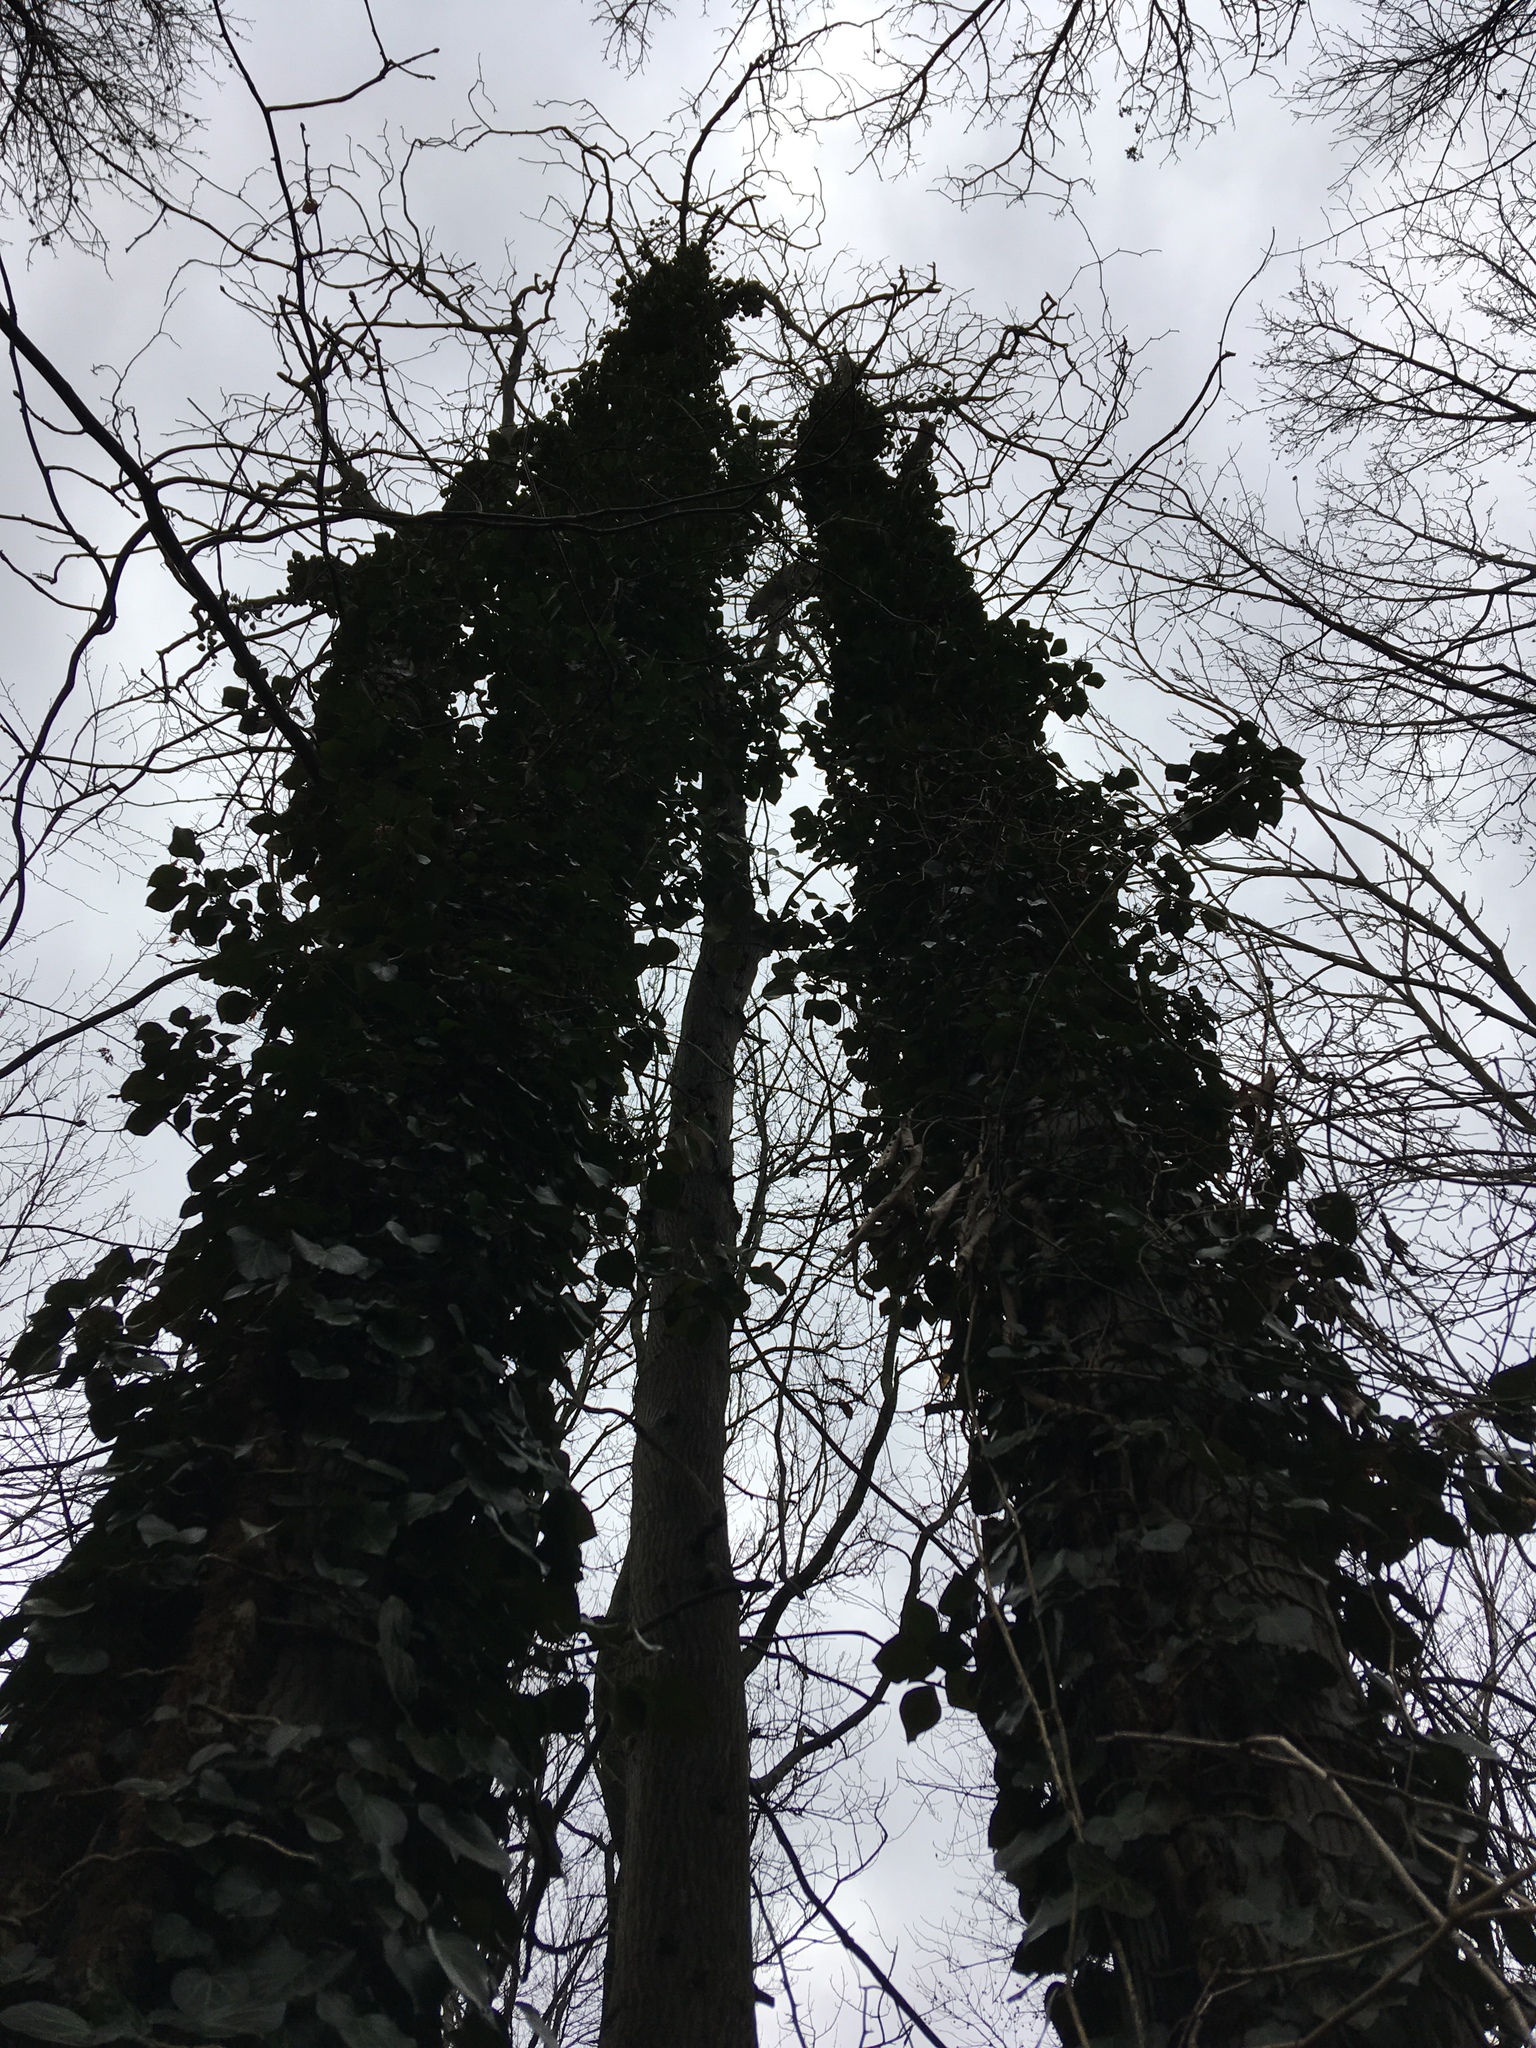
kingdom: Plantae
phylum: Tracheophyta
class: Magnoliopsida
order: Apiales
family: Araliaceae
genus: Hedera
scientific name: Hedera helix
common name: Ivy
